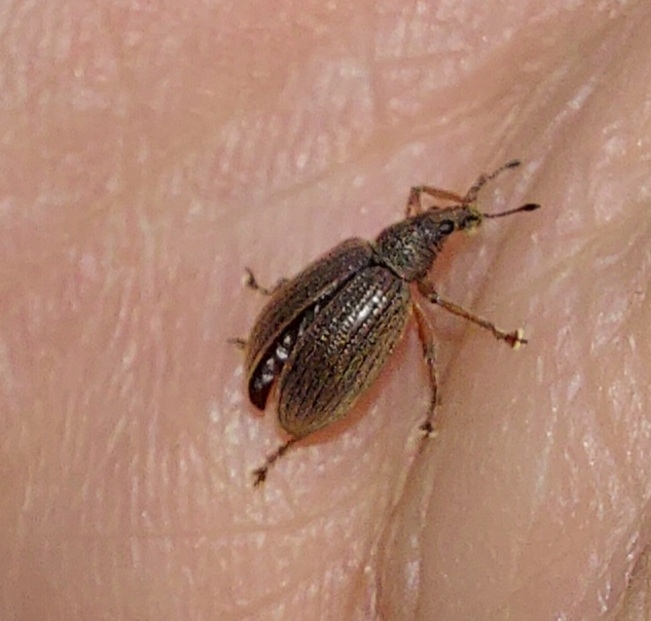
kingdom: Animalia
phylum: Arthropoda
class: Insecta
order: Coleoptera
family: Curculionidae
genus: Polydrusus
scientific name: Polydrusus mollis
